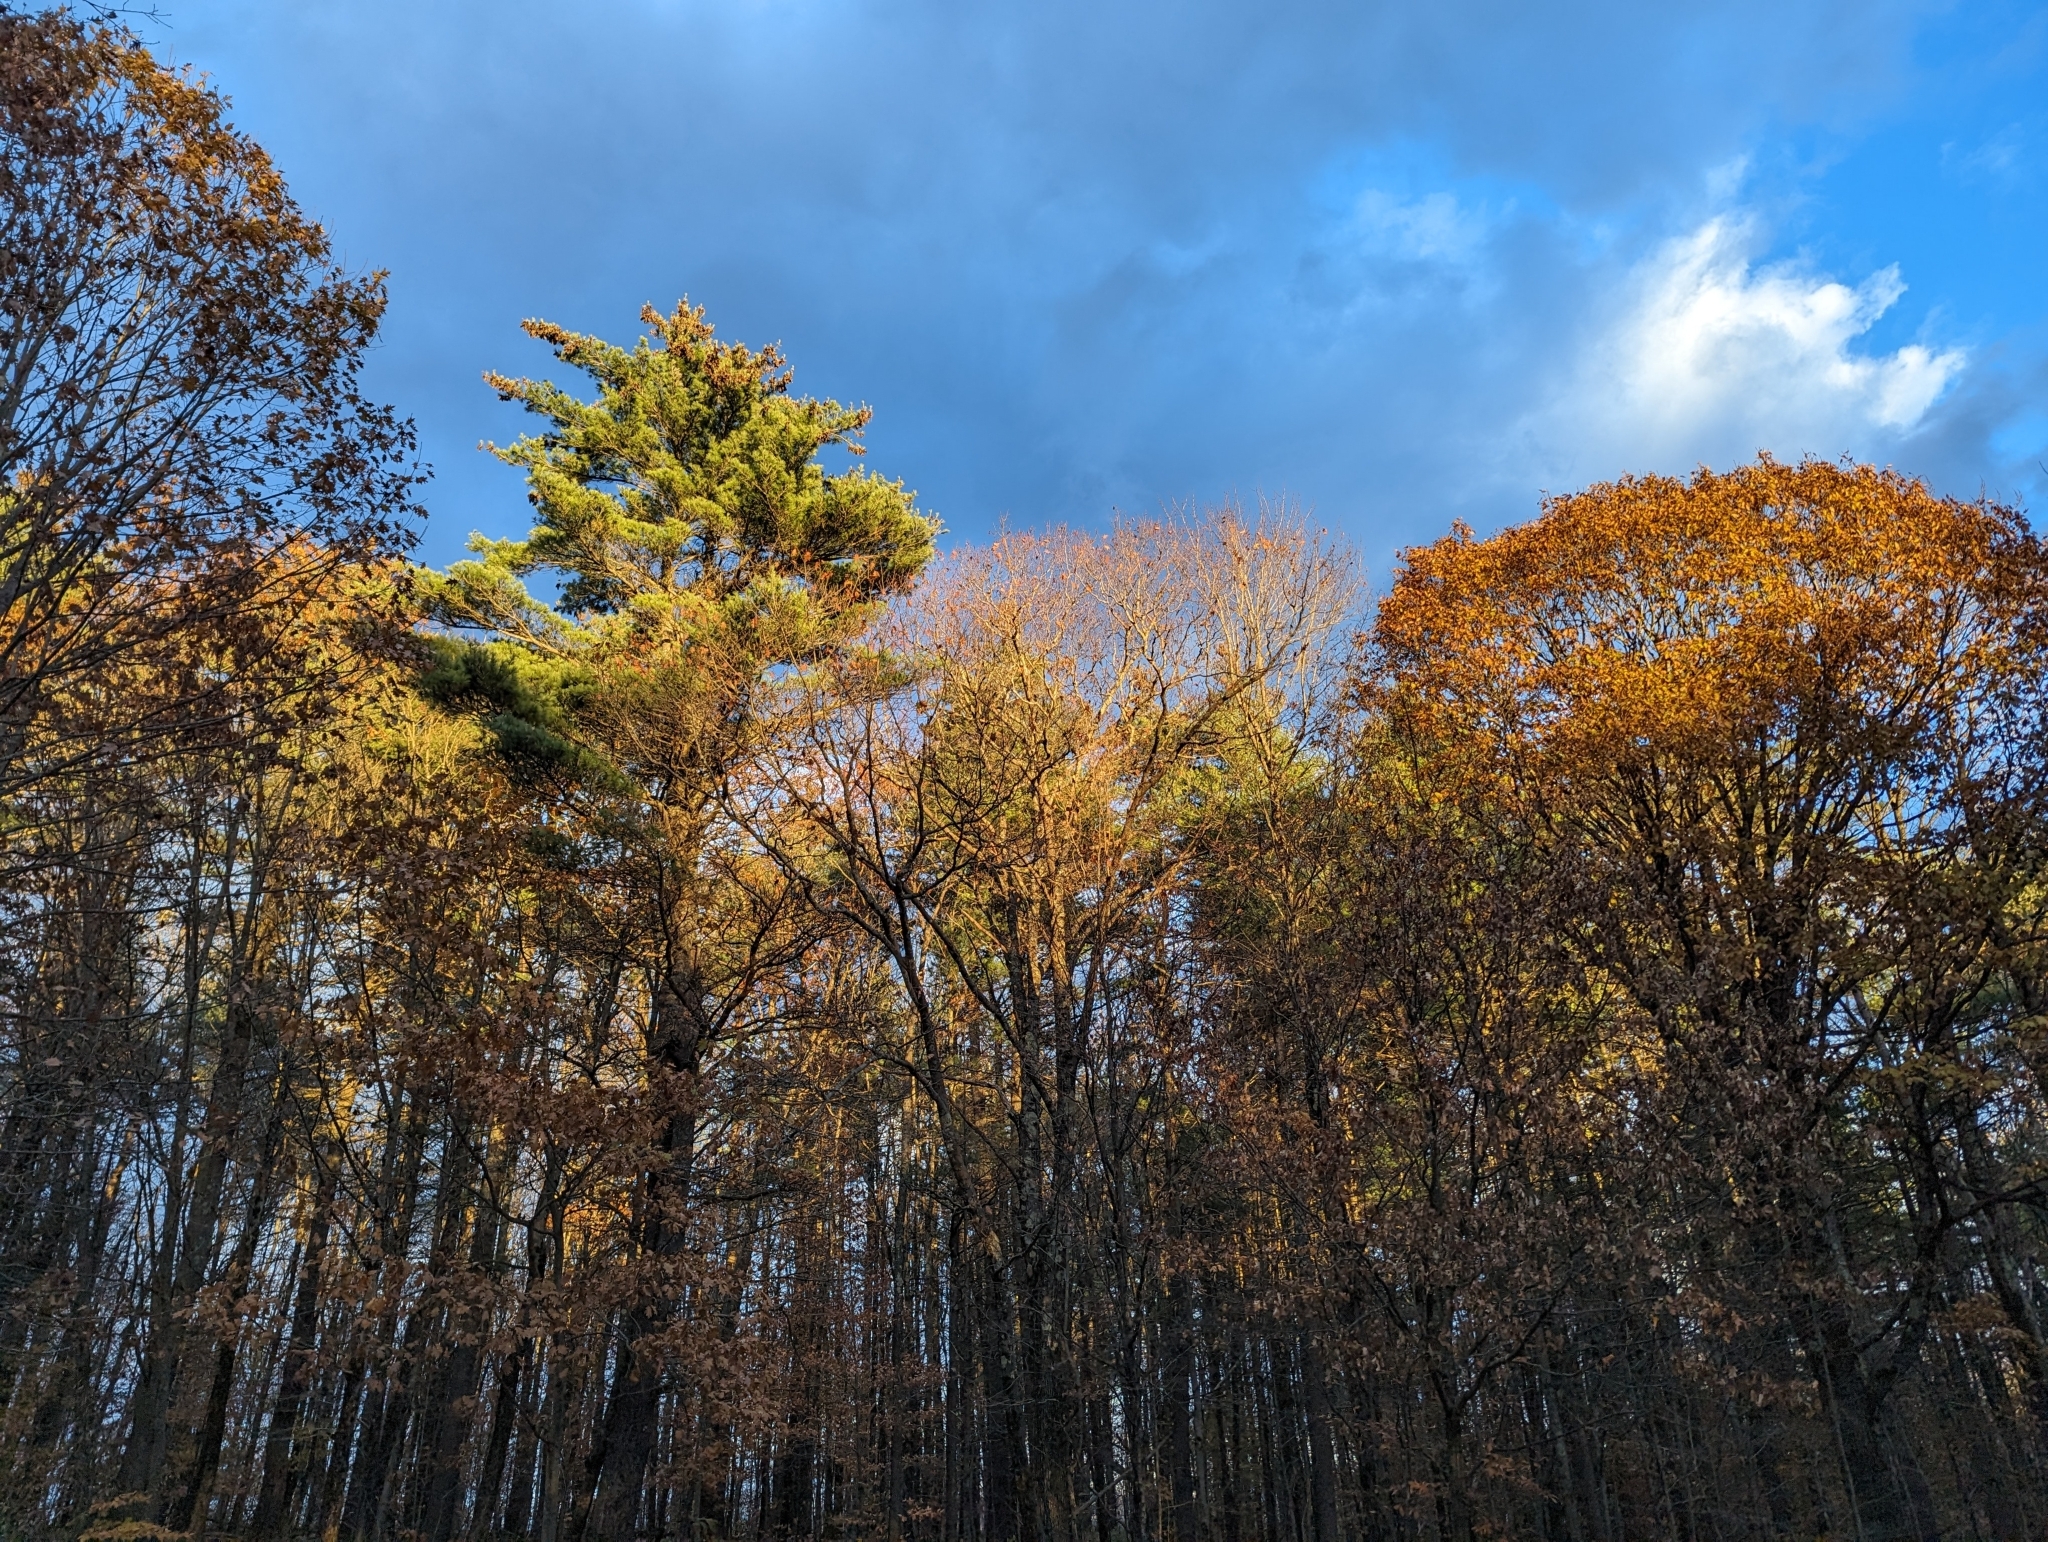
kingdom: Plantae
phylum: Tracheophyta
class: Pinopsida
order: Pinales
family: Pinaceae
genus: Pinus
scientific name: Pinus strobus
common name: Weymouth pine
